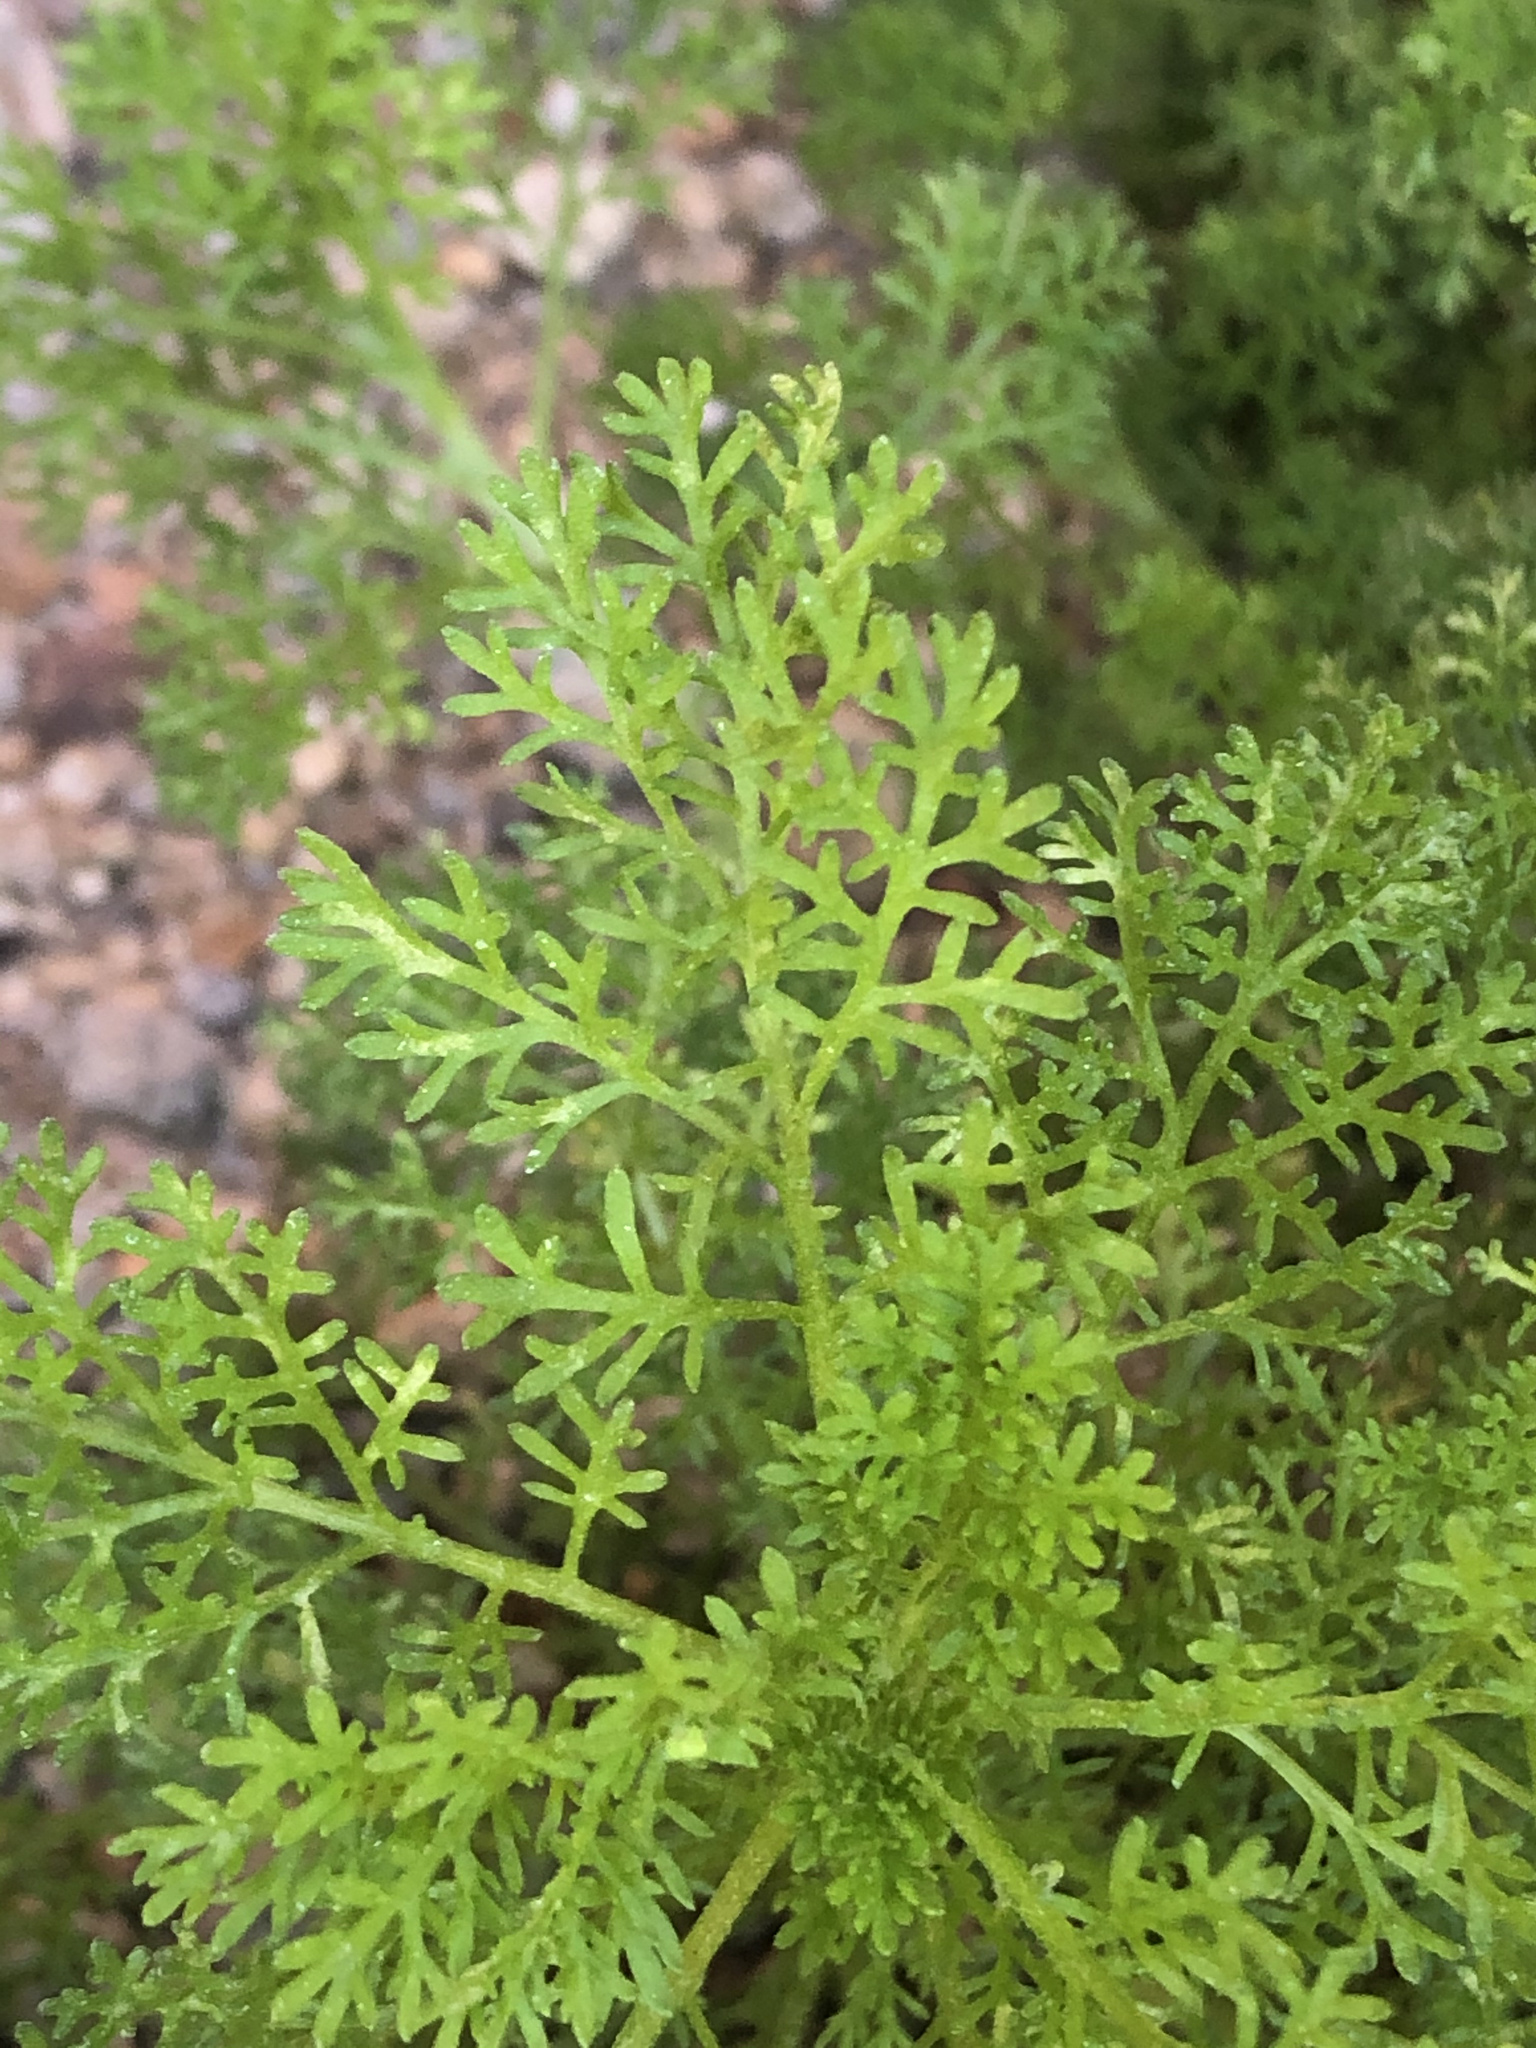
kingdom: Plantae
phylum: Tracheophyta
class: Magnoliopsida
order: Asterales
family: Asteraceae
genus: Oncosiphon
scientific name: Oncosiphon pilulifer
